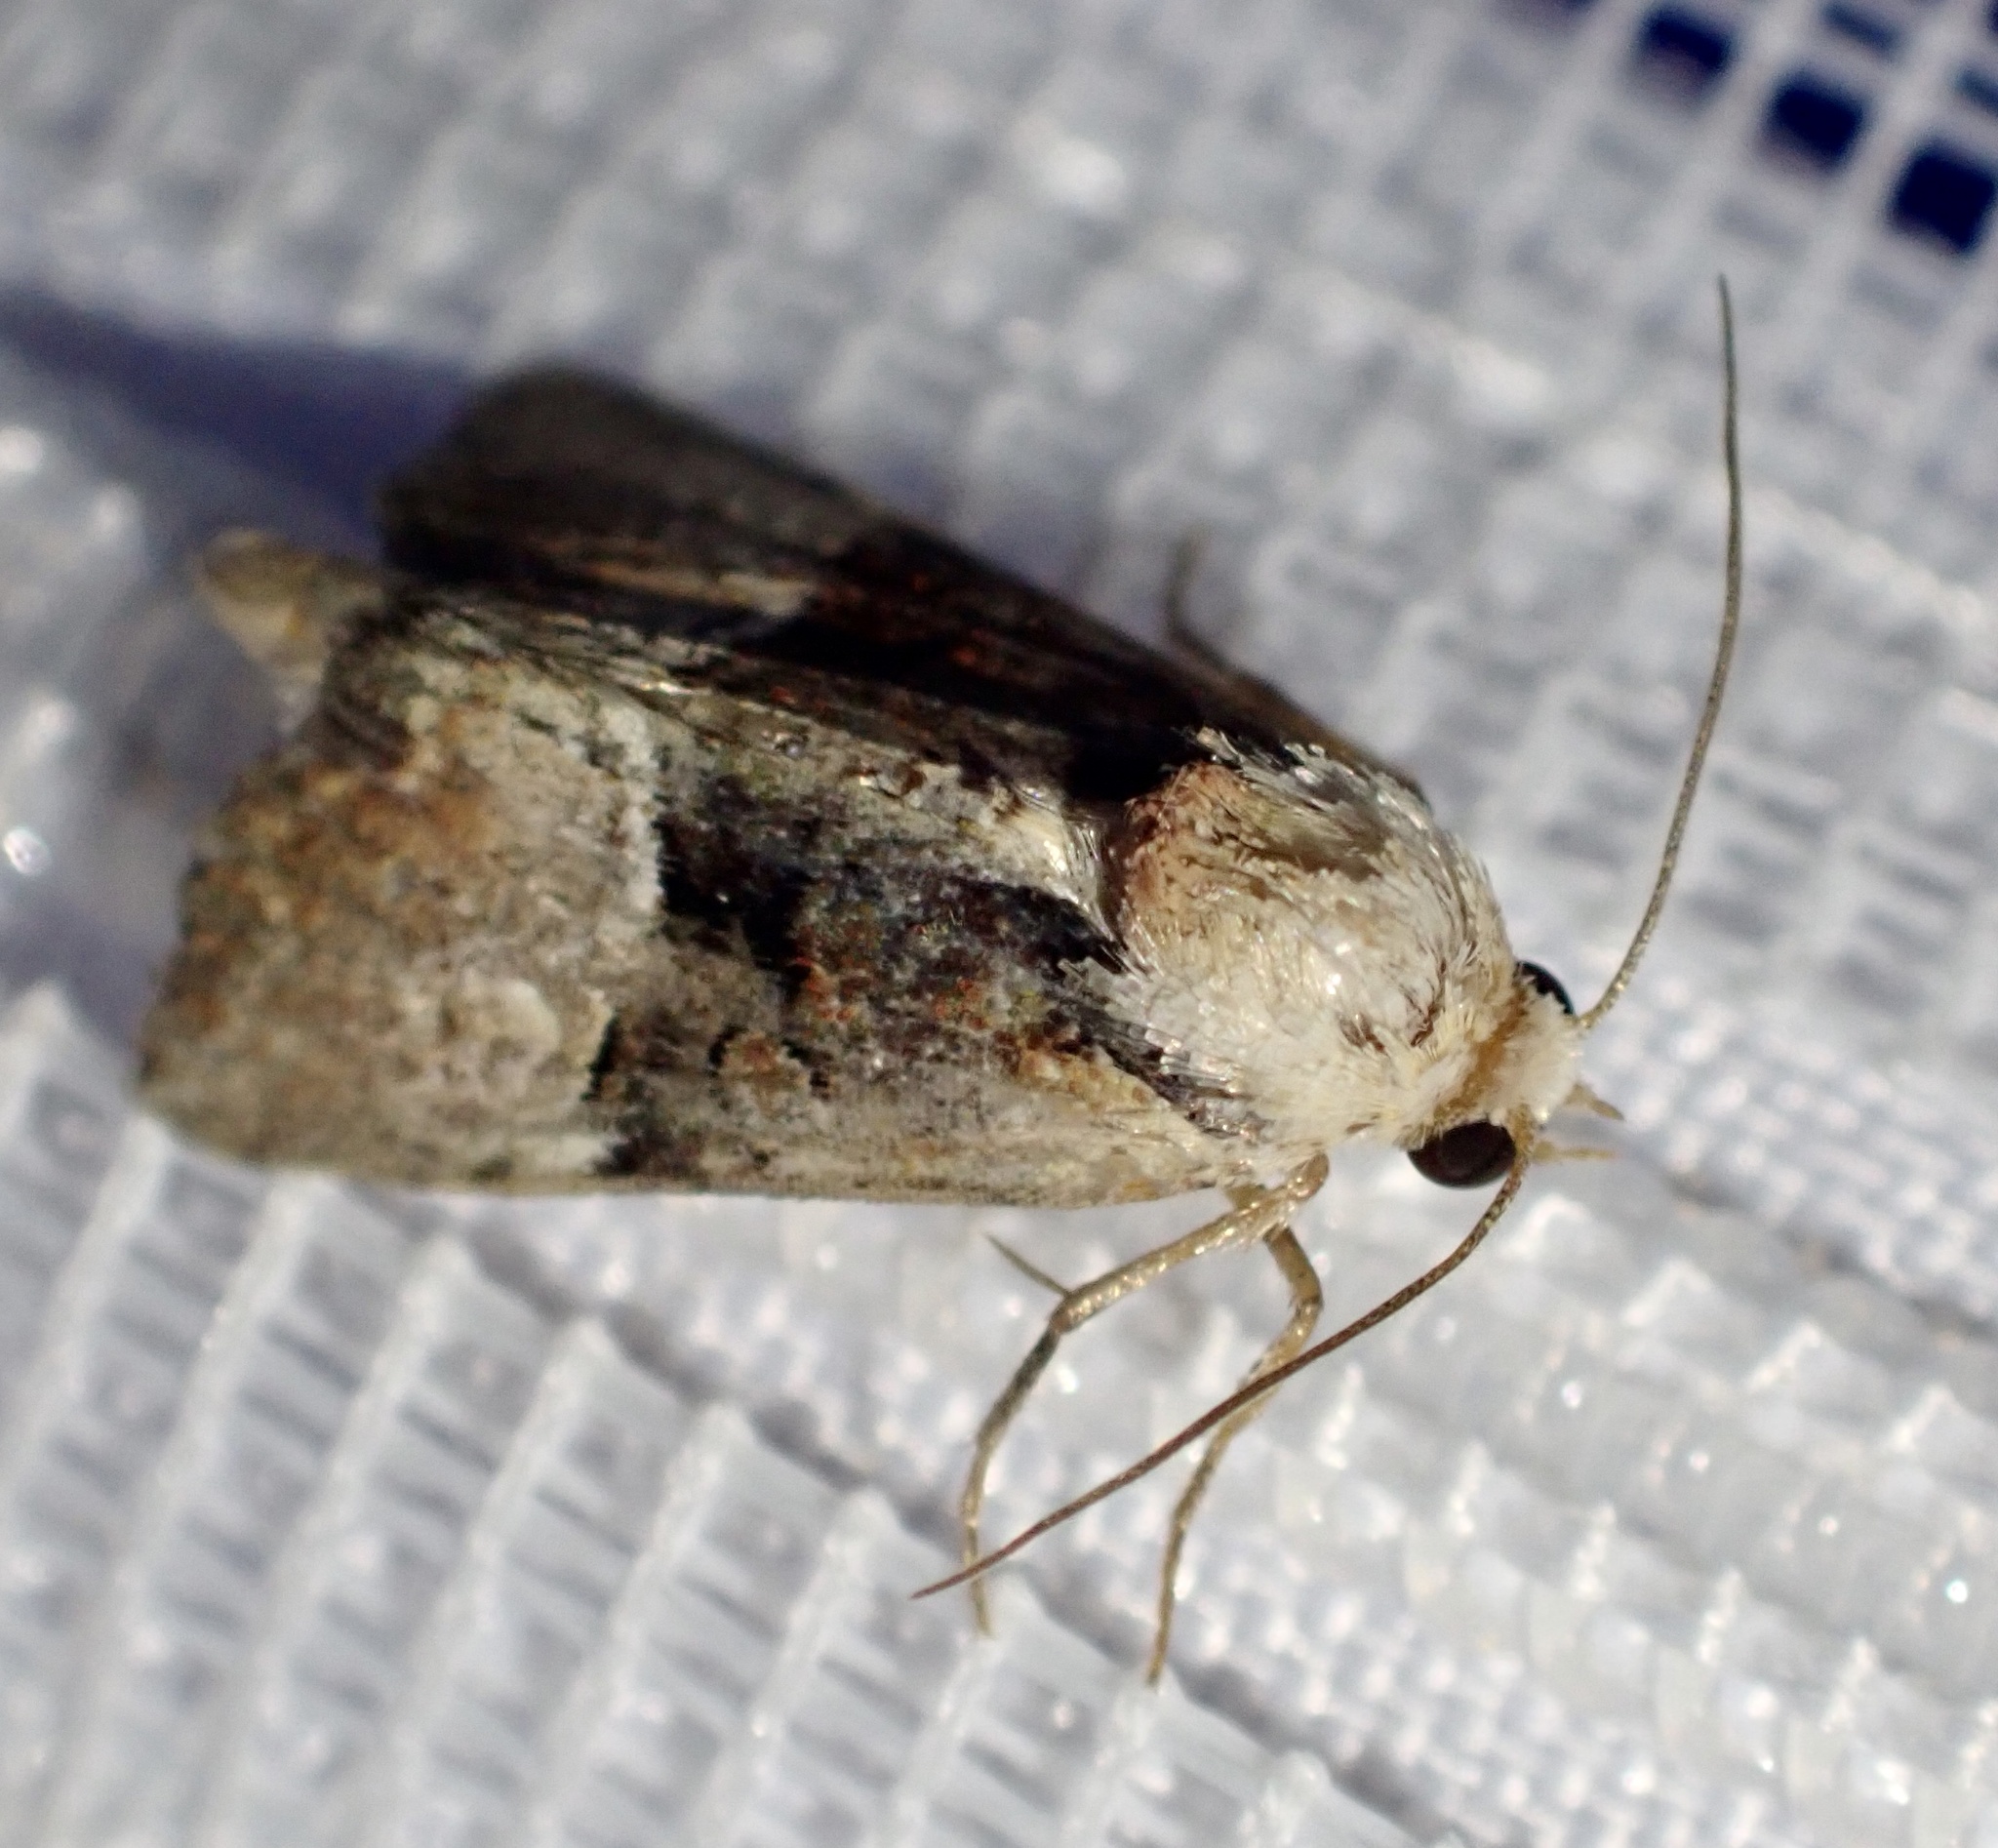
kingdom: Animalia
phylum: Arthropoda
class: Insecta
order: Lepidoptera
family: Noctuidae
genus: Mesoligia
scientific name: Mesoligia furuncula
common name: Cloaked minor
